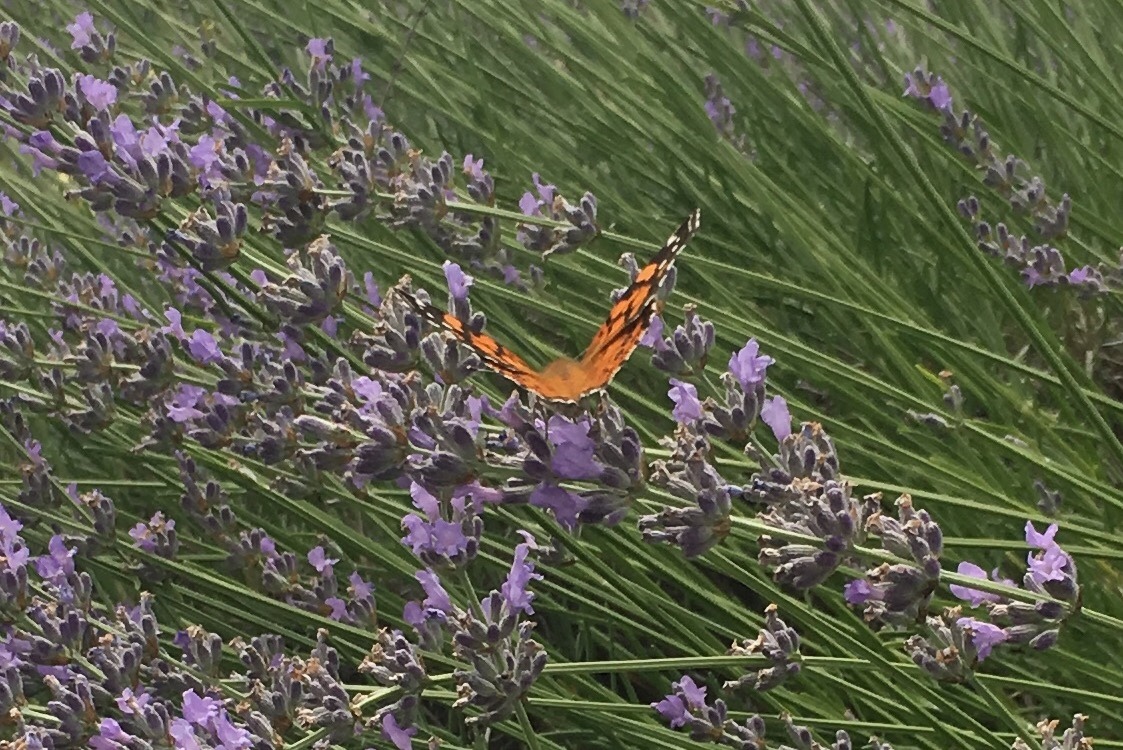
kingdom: Animalia
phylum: Arthropoda
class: Insecta
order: Lepidoptera
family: Nymphalidae
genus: Vanessa
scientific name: Vanessa annabella
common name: West coast lady
